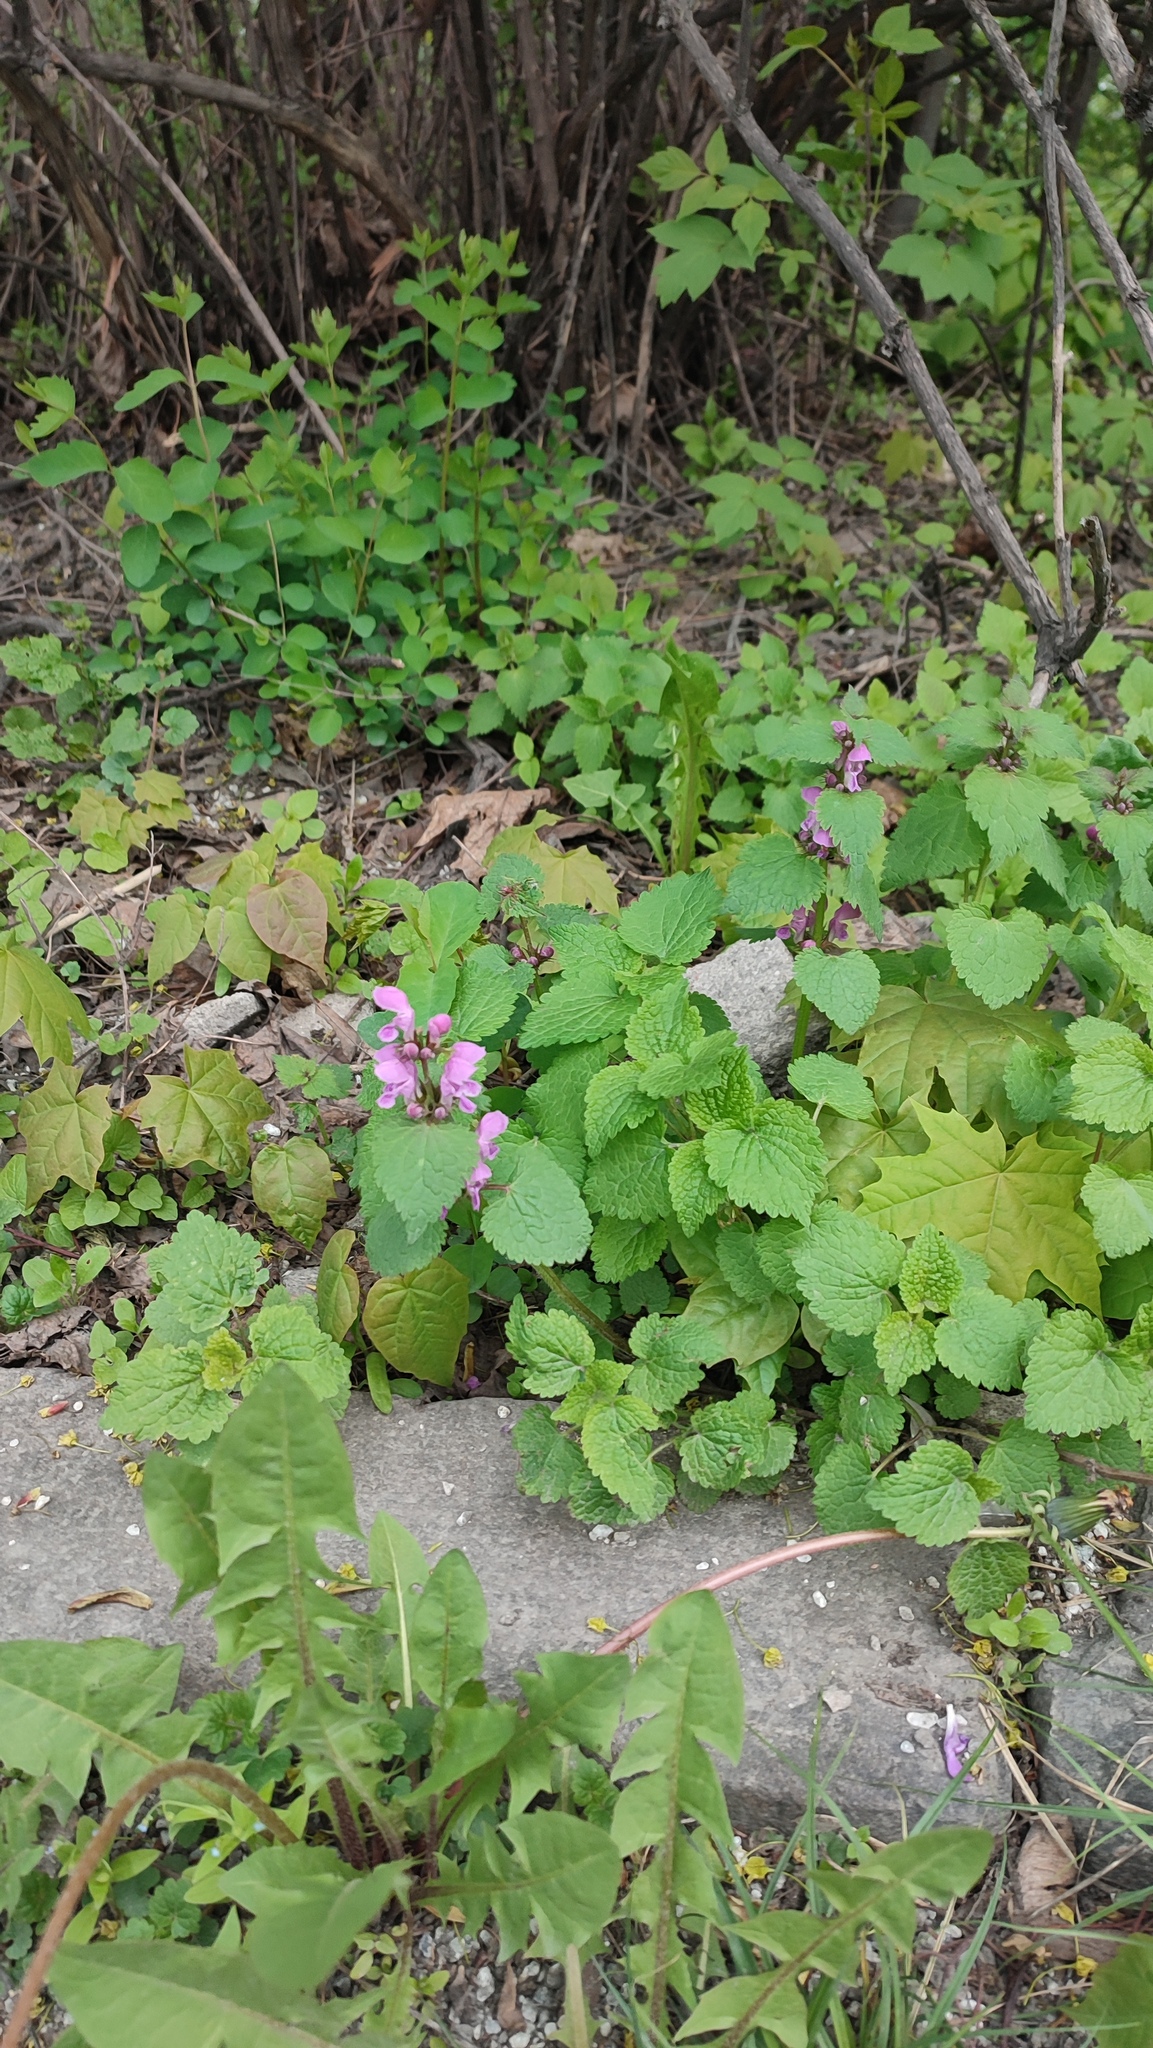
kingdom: Plantae
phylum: Tracheophyta
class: Magnoliopsida
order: Lamiales
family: Lamiaceae
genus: Lamium
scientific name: Lamium maculatum
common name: Spotted dead-nettle
